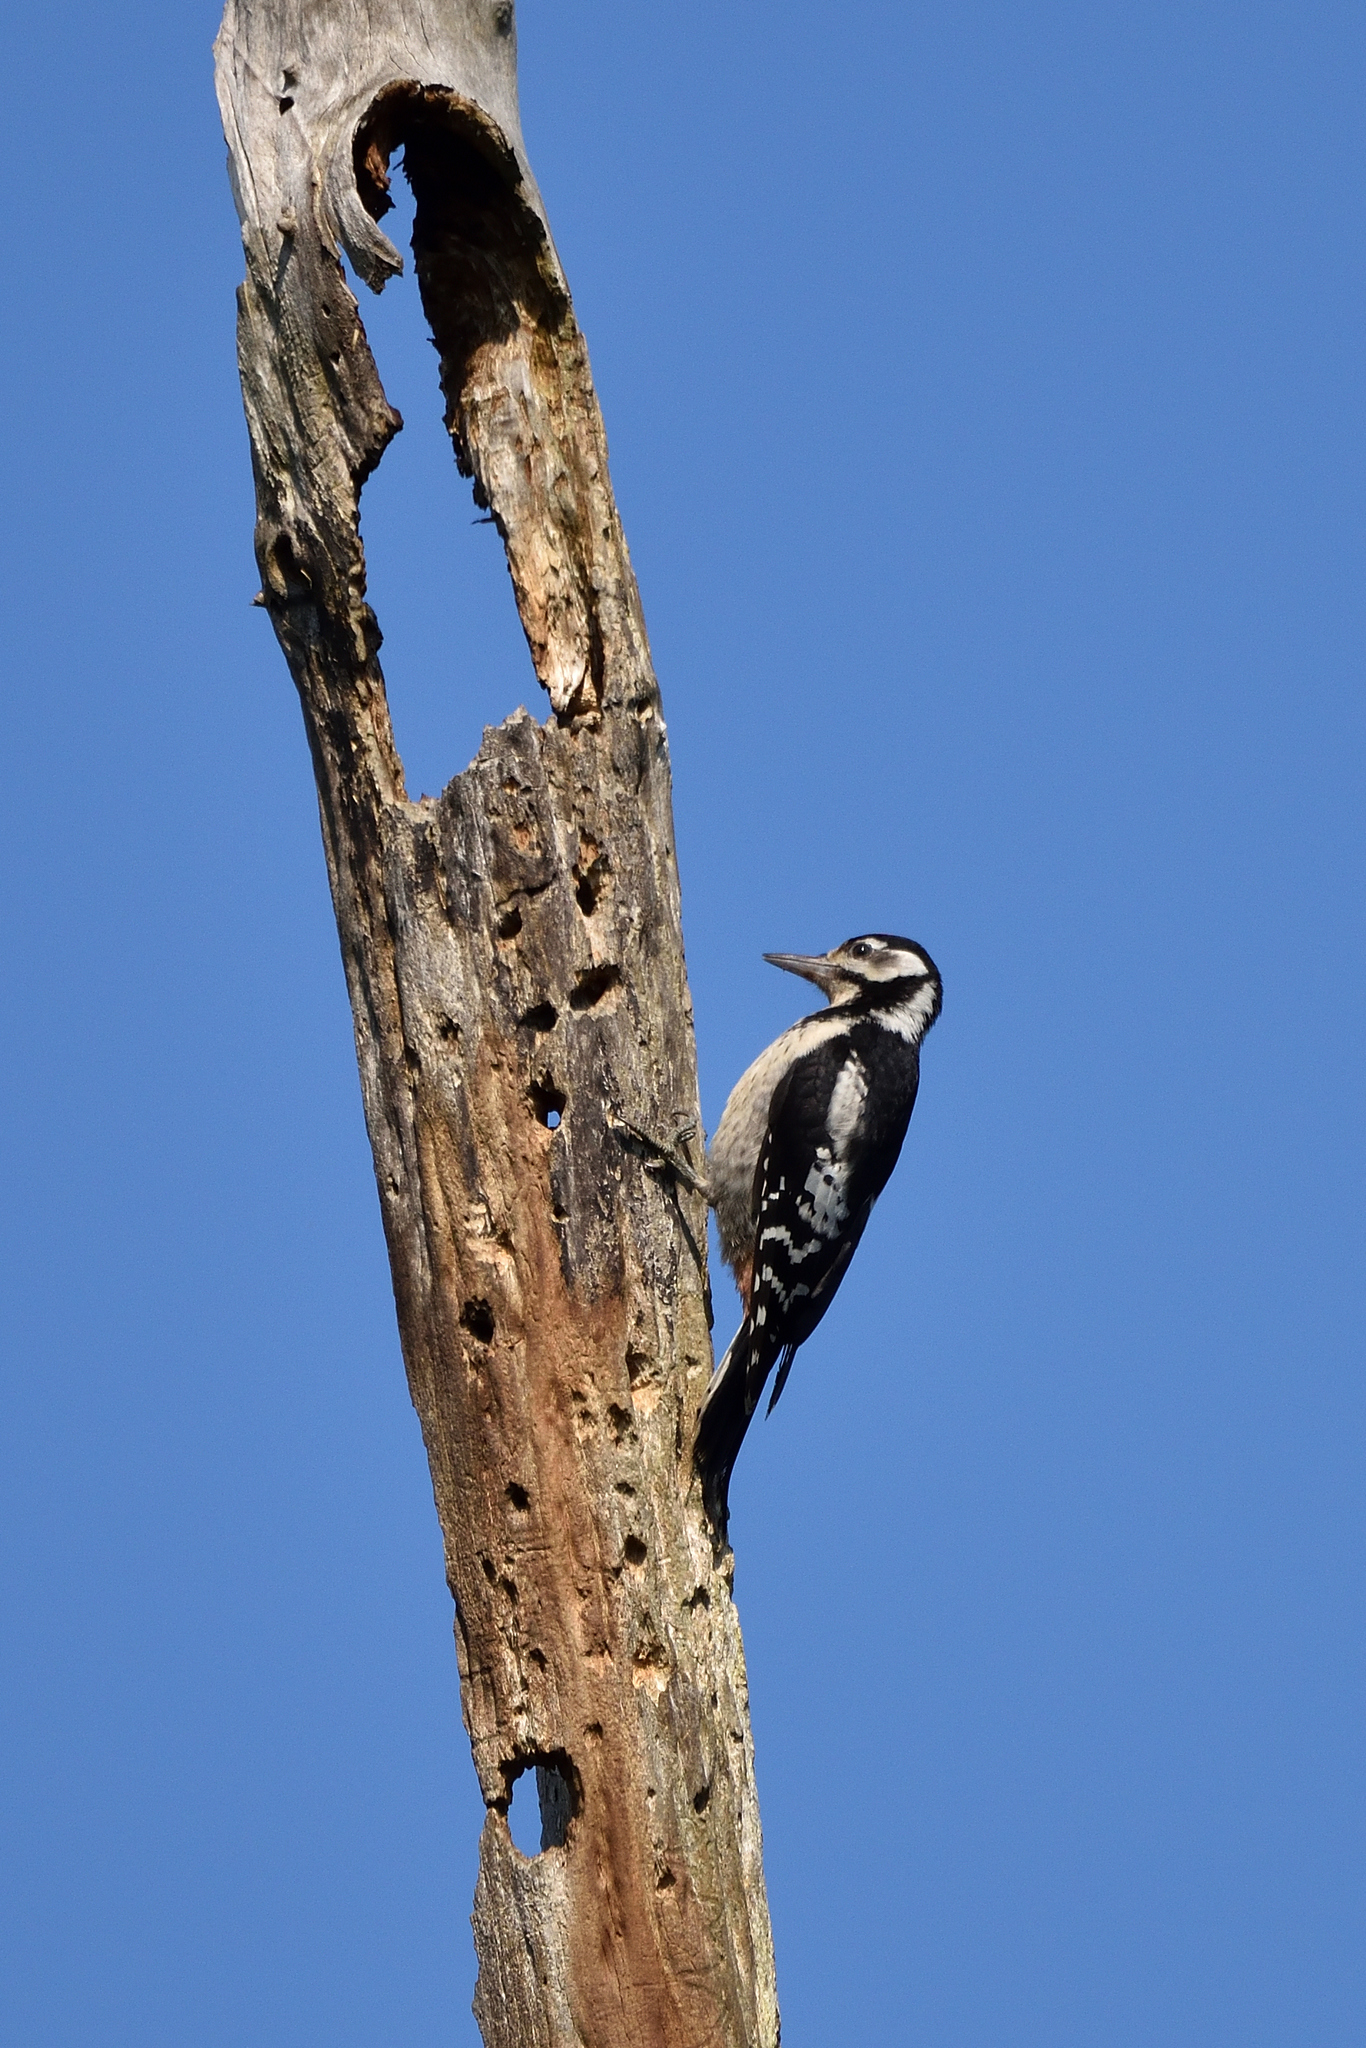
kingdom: Animalia
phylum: Chordata
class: Aves
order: Piciformes
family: Picidae
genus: Dendrocopos
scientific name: Dendrocopos major
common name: Great spotted woodpecker
